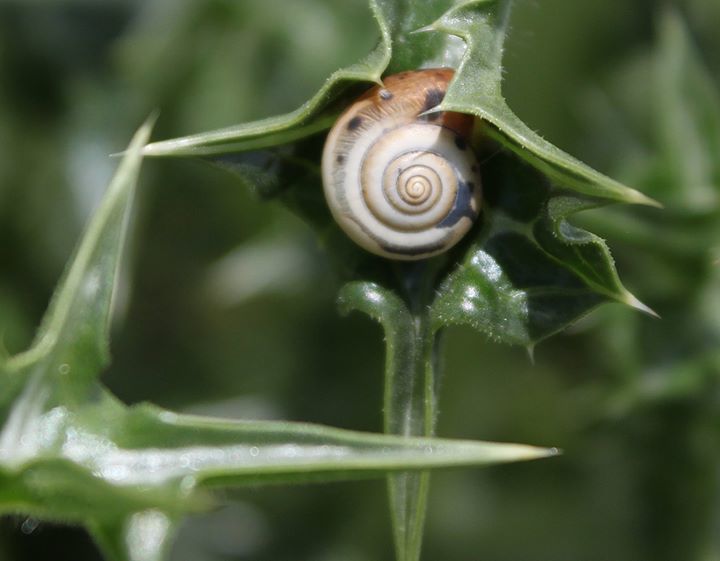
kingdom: Animalia
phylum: Mollusca
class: Gastropoda
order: Stylommatophora
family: Hygromiidae
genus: Monacha
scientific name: Monacha cartusiana
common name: Carthusian snail
